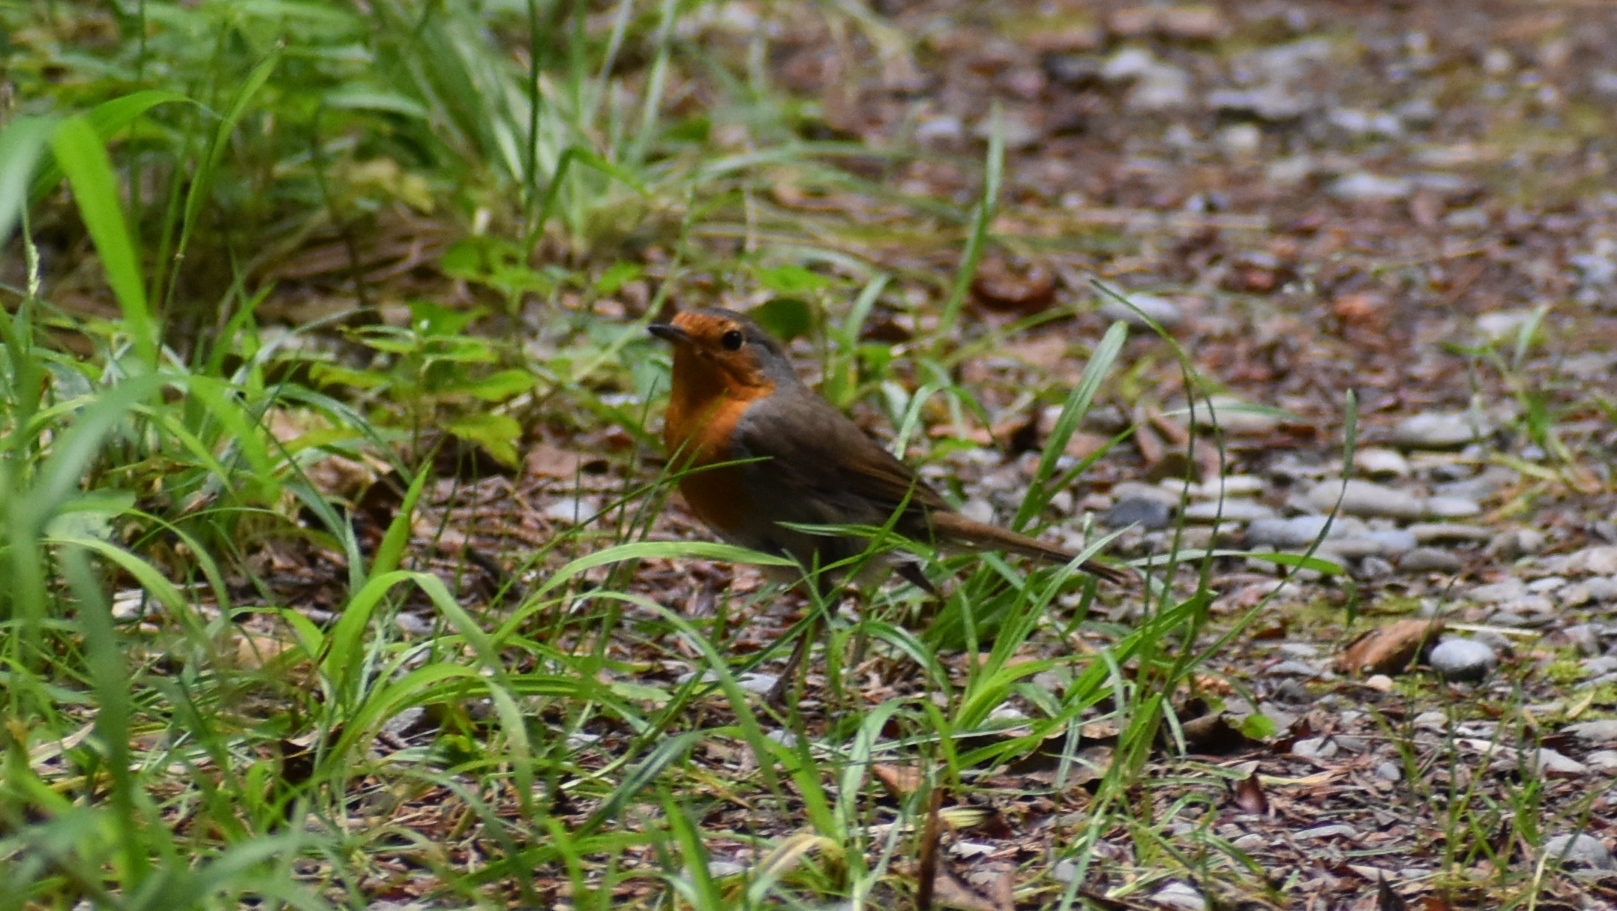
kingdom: Animalia
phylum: Chordata
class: Aves
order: Passeriformes
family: Muscicapidae
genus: Erithacus
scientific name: Erithacus rubecula
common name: European robin
